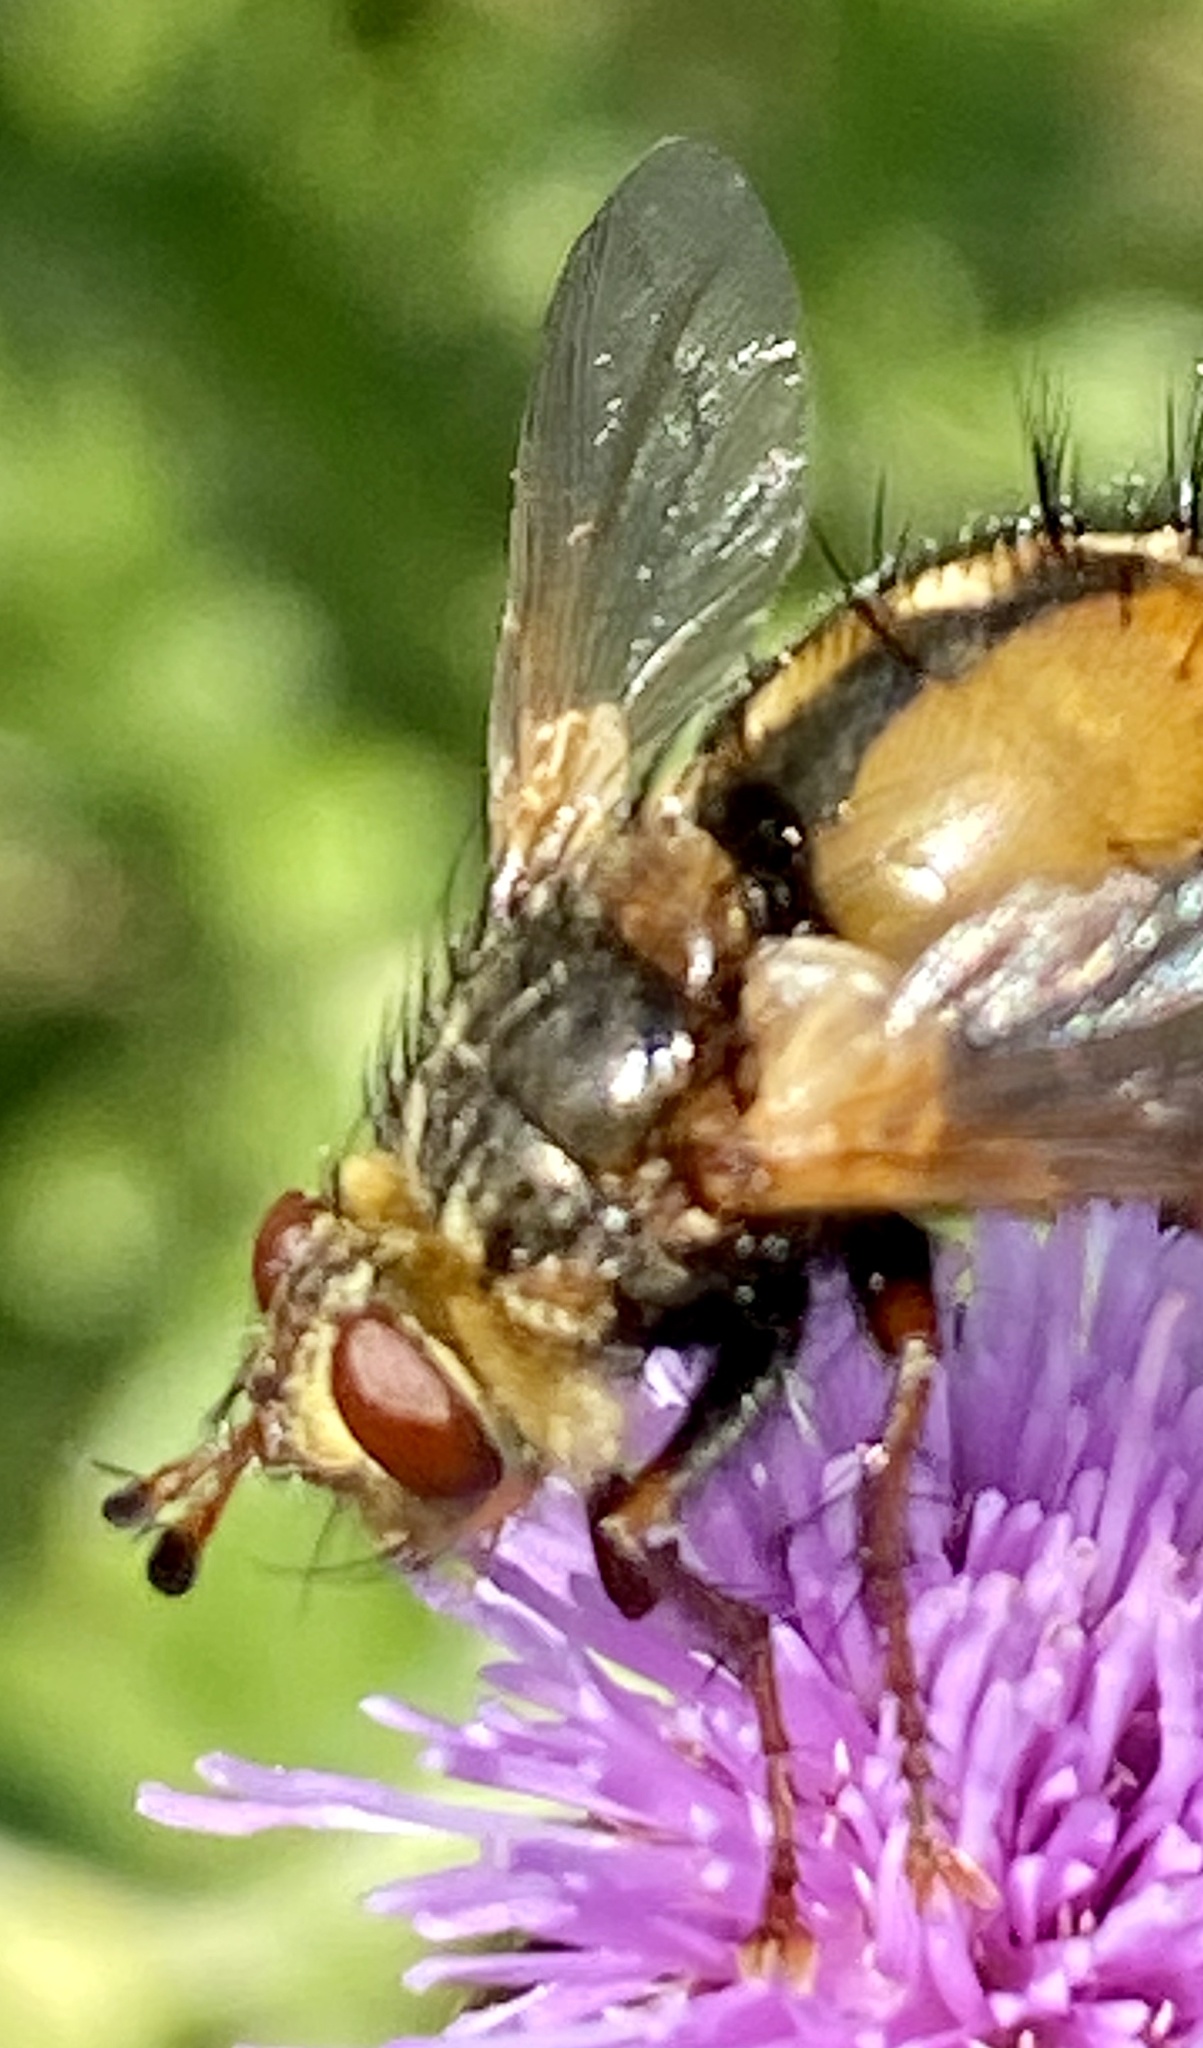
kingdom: Animalia
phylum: Arthropoda
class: Insecta
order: Diptera
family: Tachinidae
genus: Tachina
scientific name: Tachina fera
